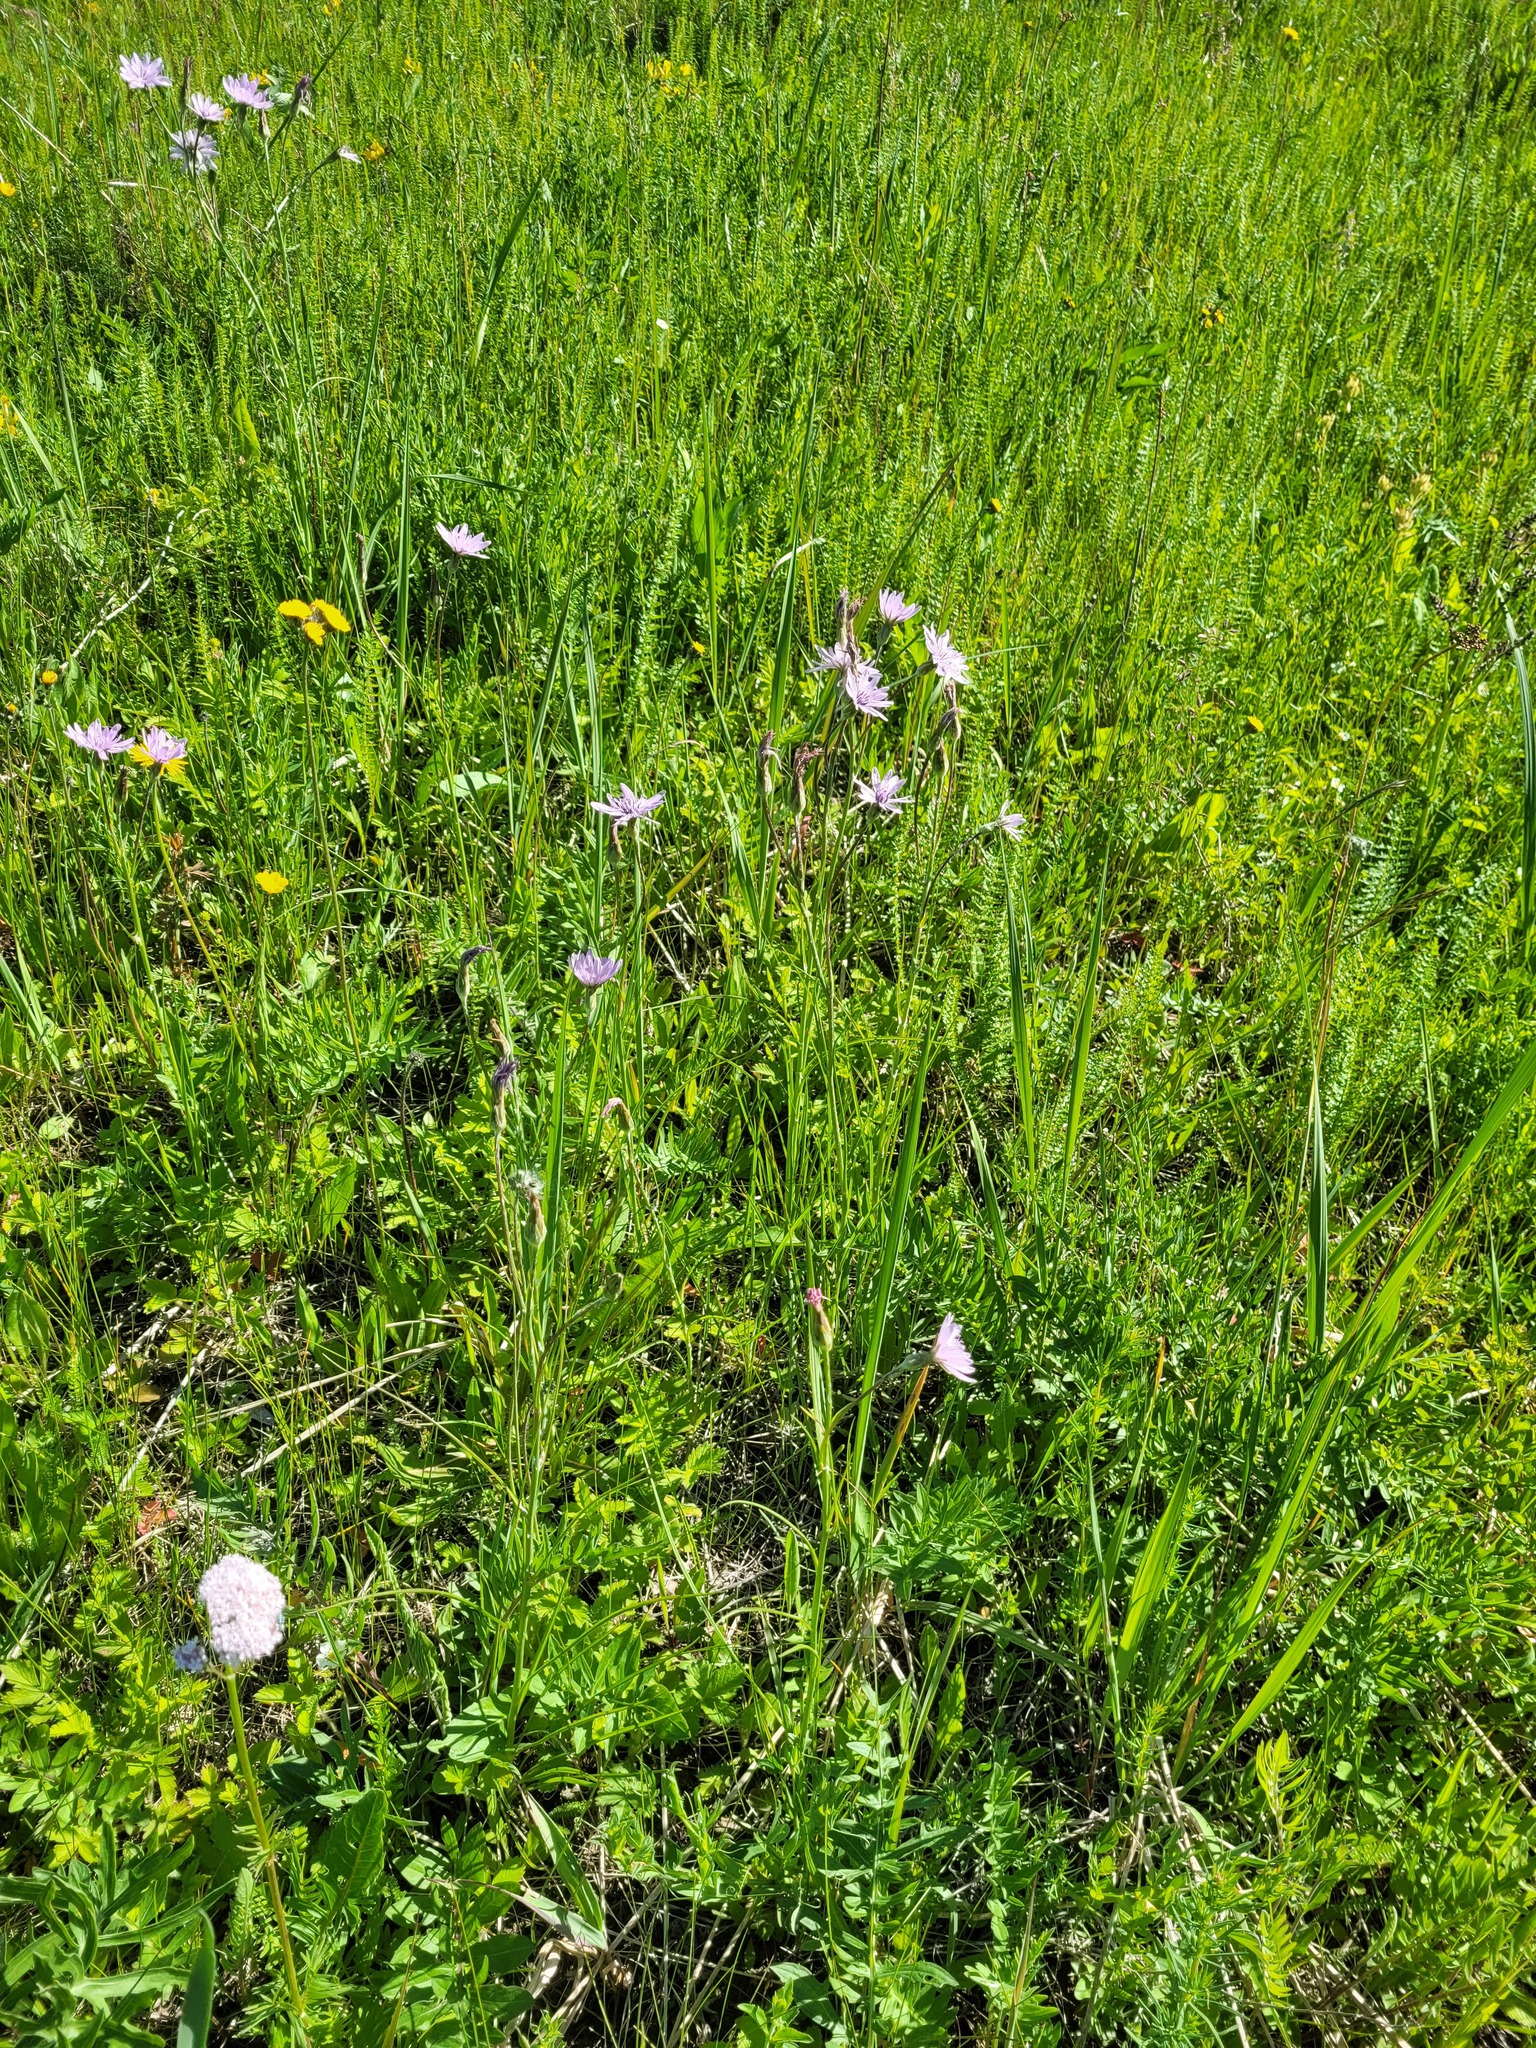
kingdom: Plantae
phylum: Tracheophyta
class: Magnoliopsida
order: Asterales
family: Asteraceae
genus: Scorzonera
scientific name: Scorzonera purpurea
